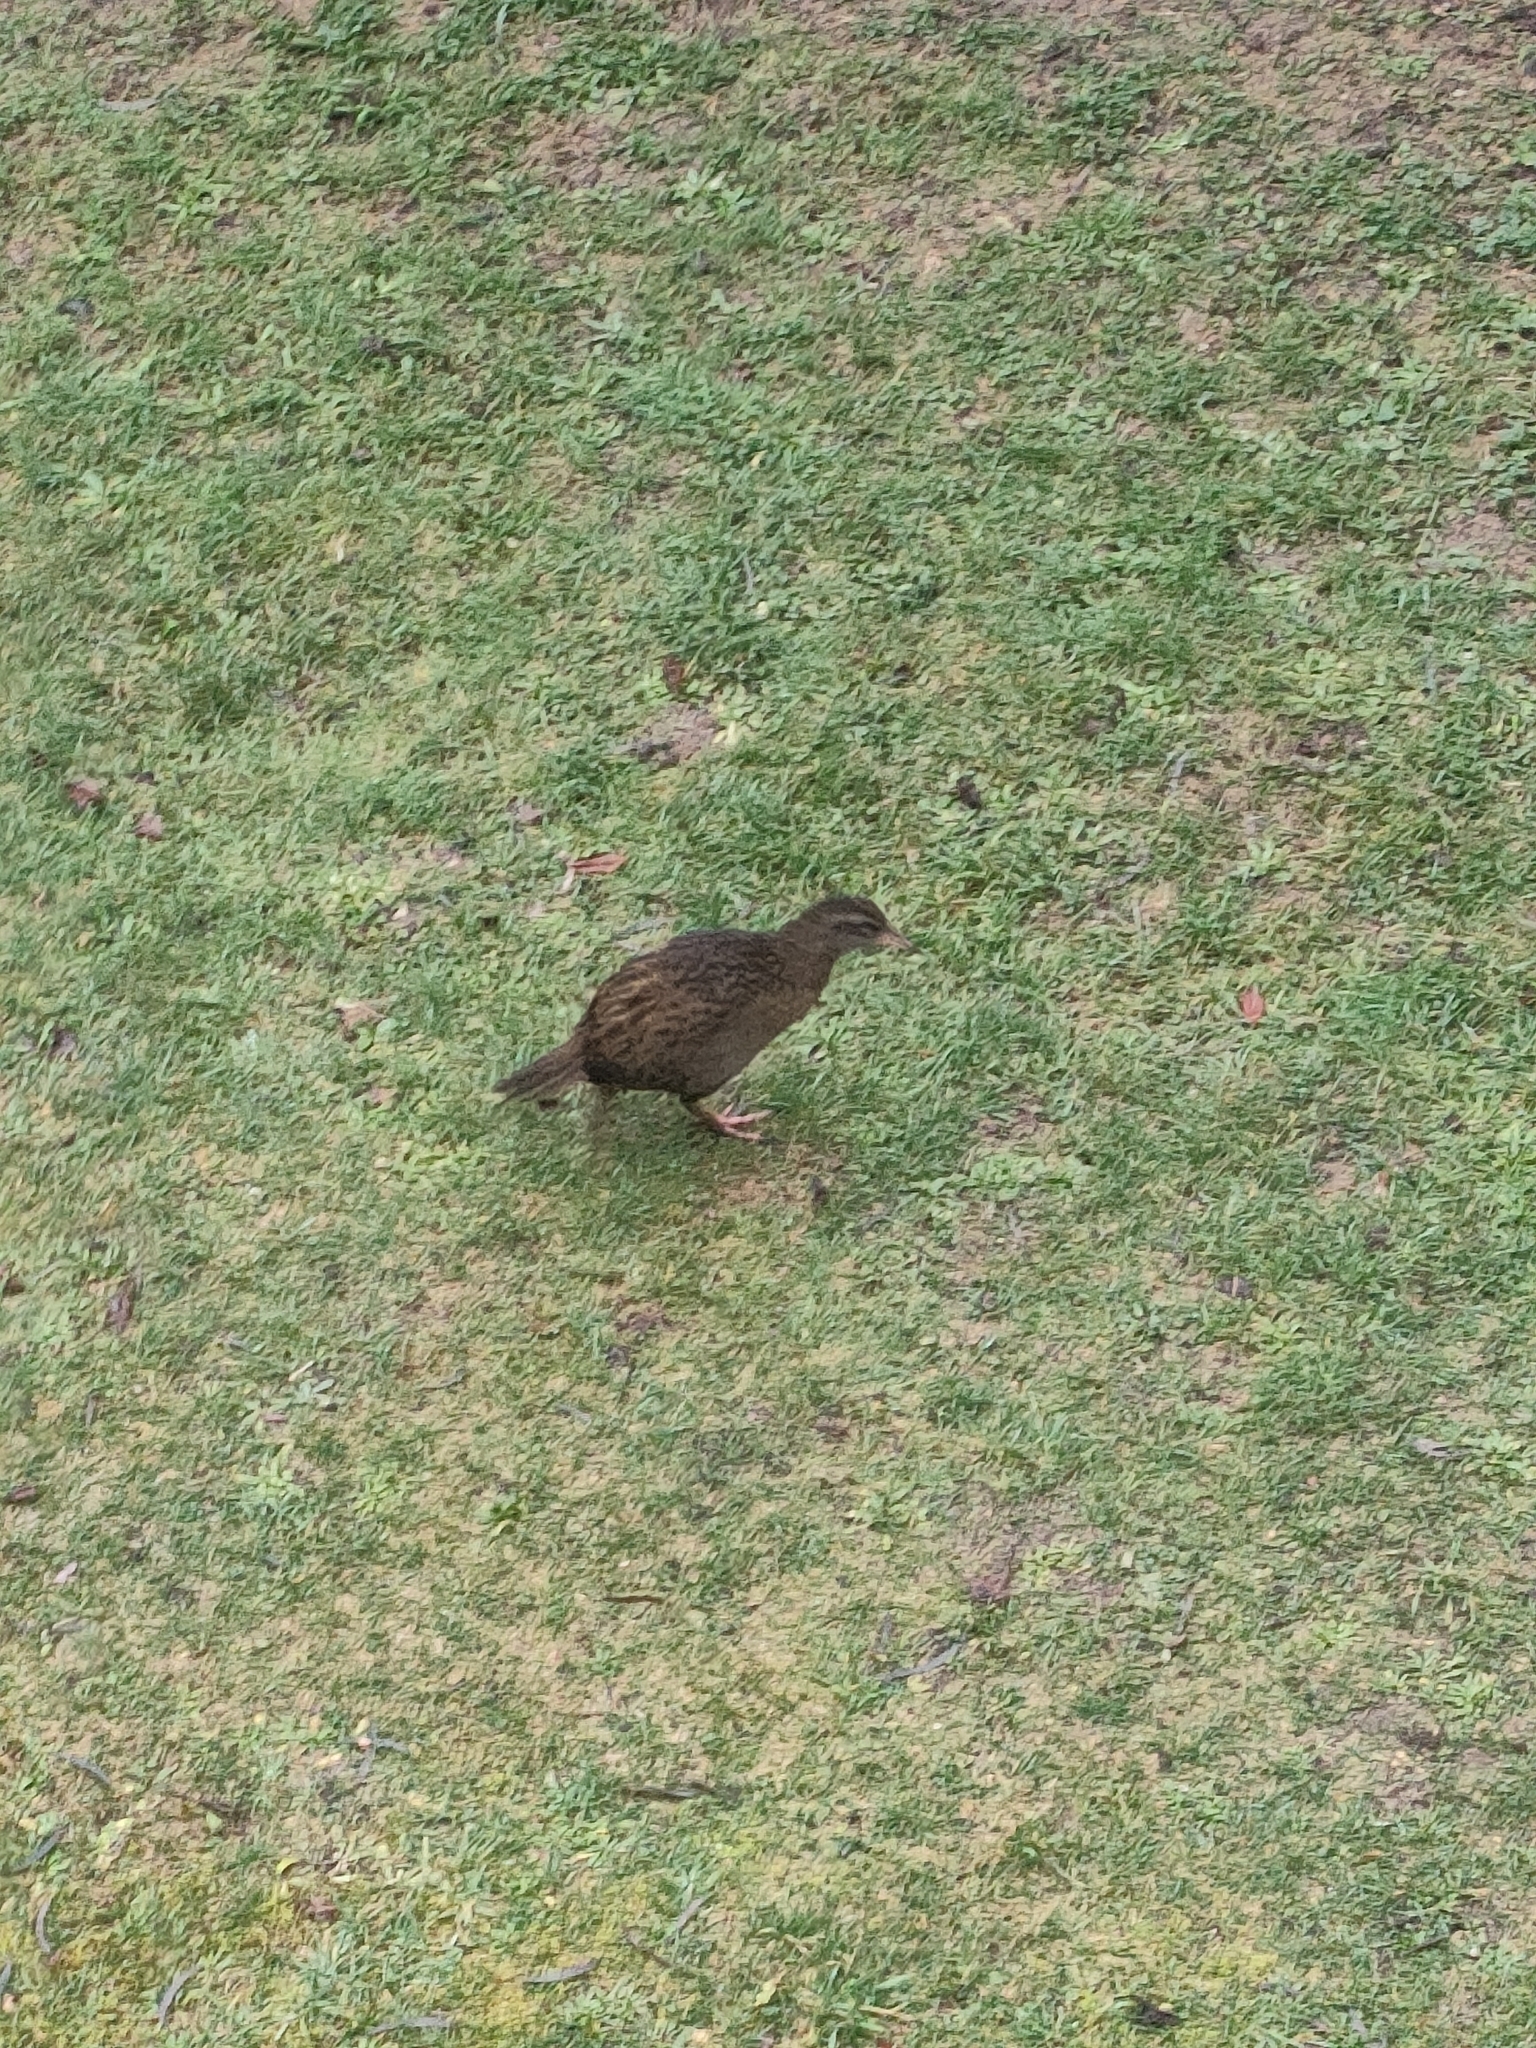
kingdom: Animalia
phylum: Chordata
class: Aves
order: Gruiformes
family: Rallidae
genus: Gallirallus
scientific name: Gallirallus australis
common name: Weka
